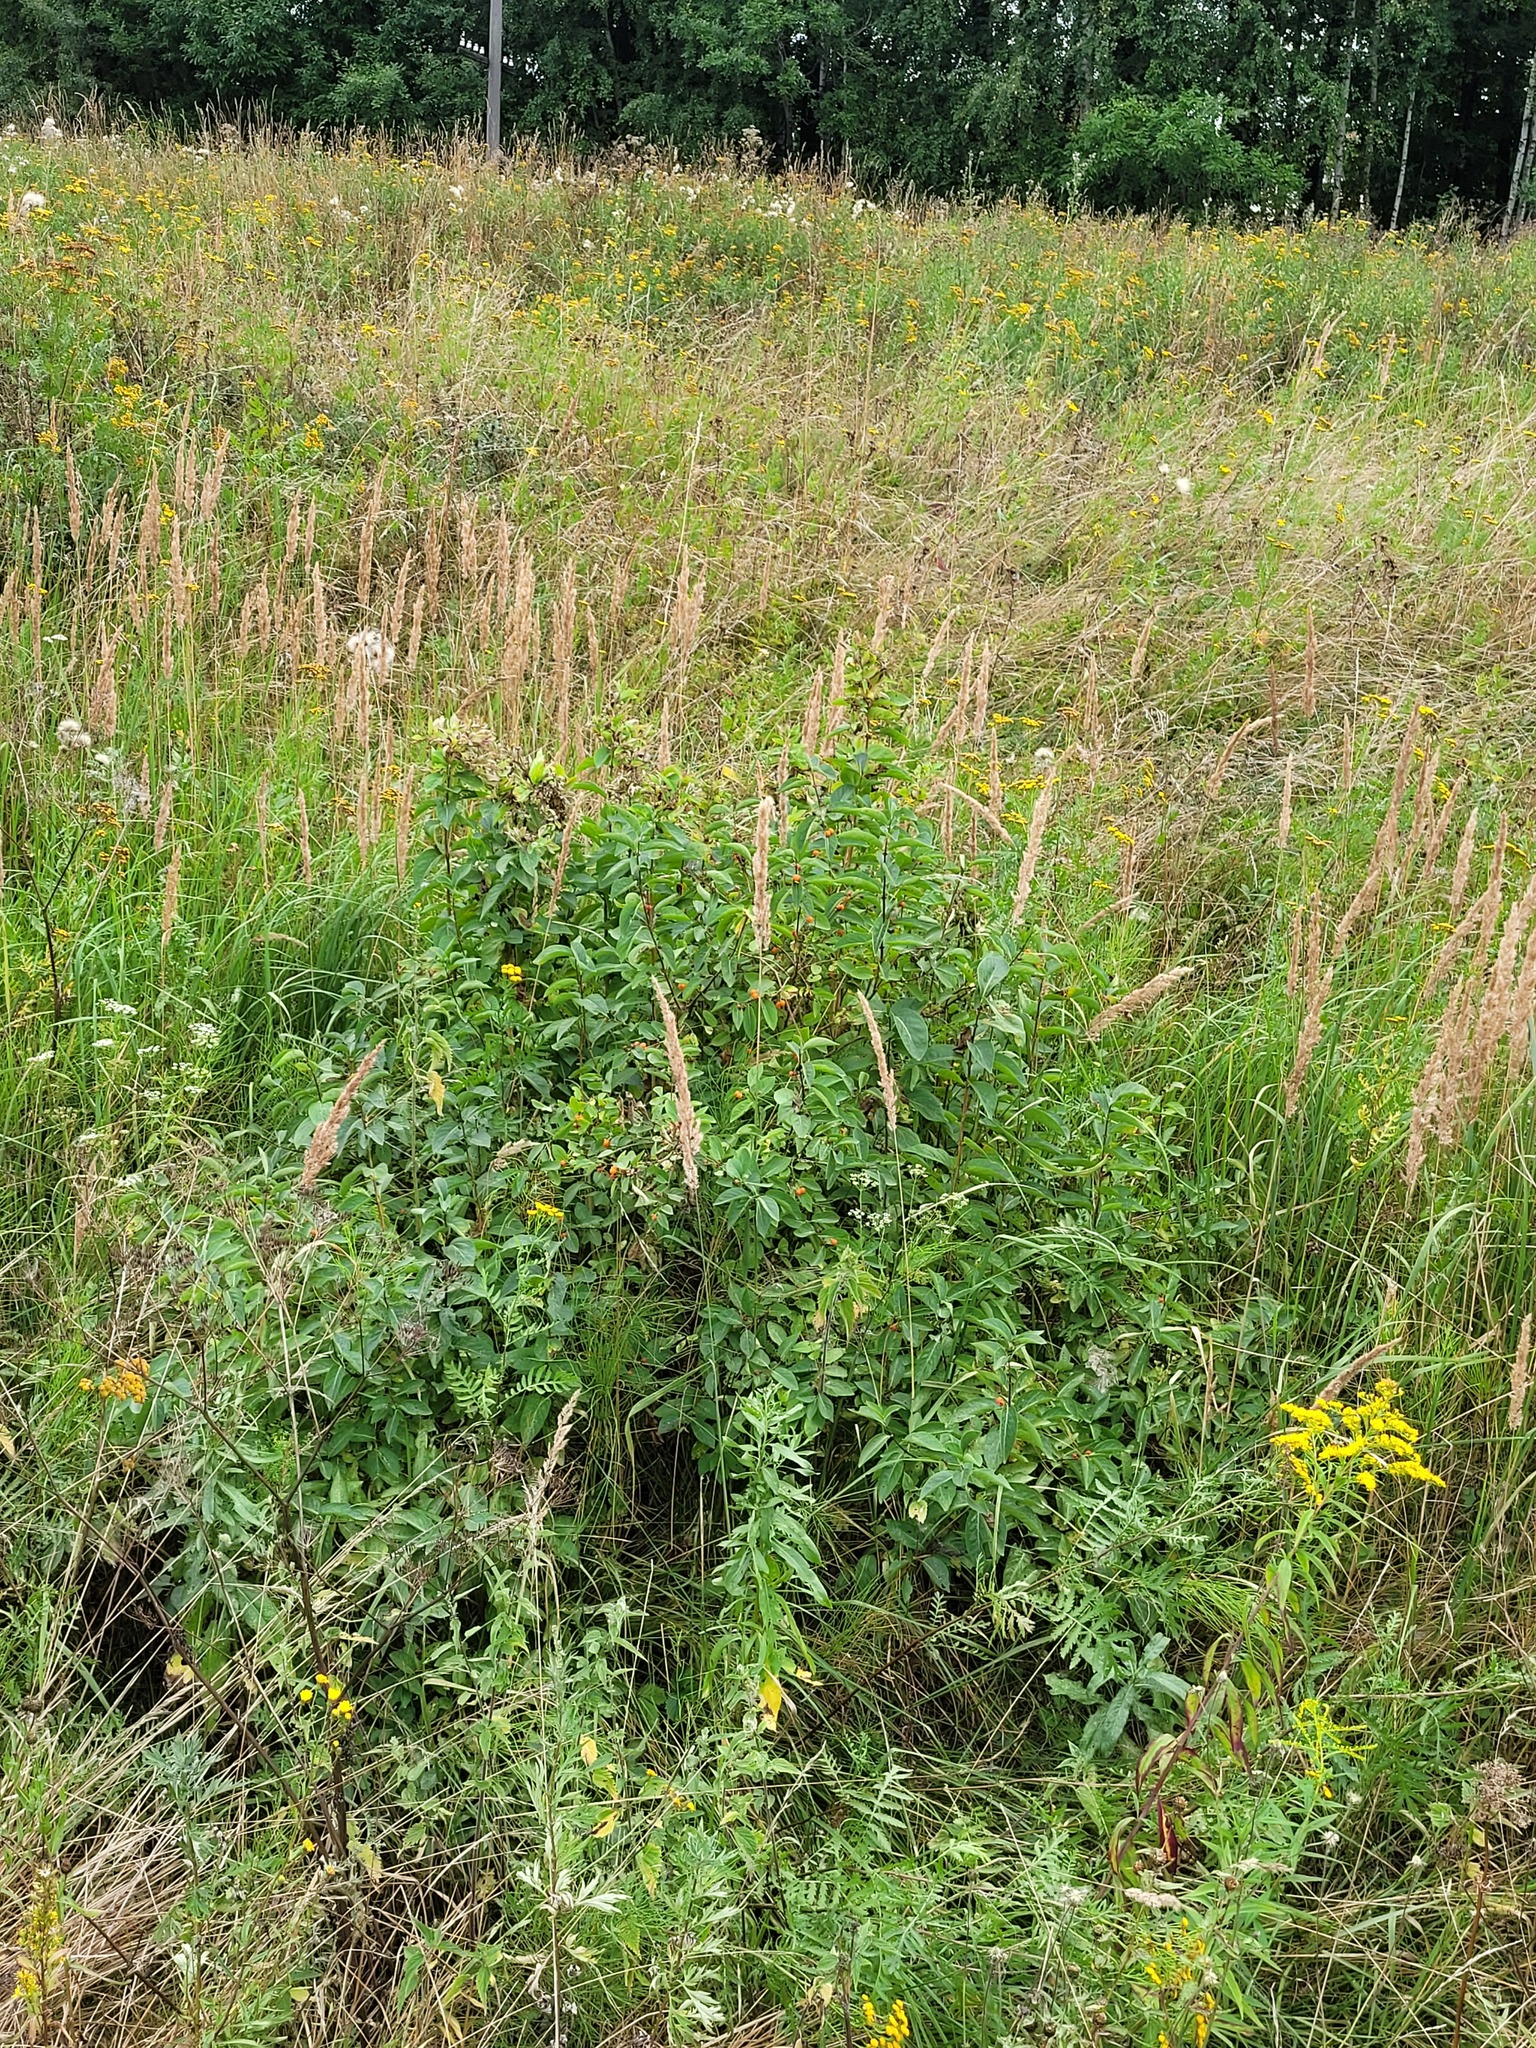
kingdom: Plantae
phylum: Tracheophyta
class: Magnoliopsida
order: Dipsacales
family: Caprifoliaceae
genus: Lonicera
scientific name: Lonicera tatarica
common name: Tatarian honeysuckle
